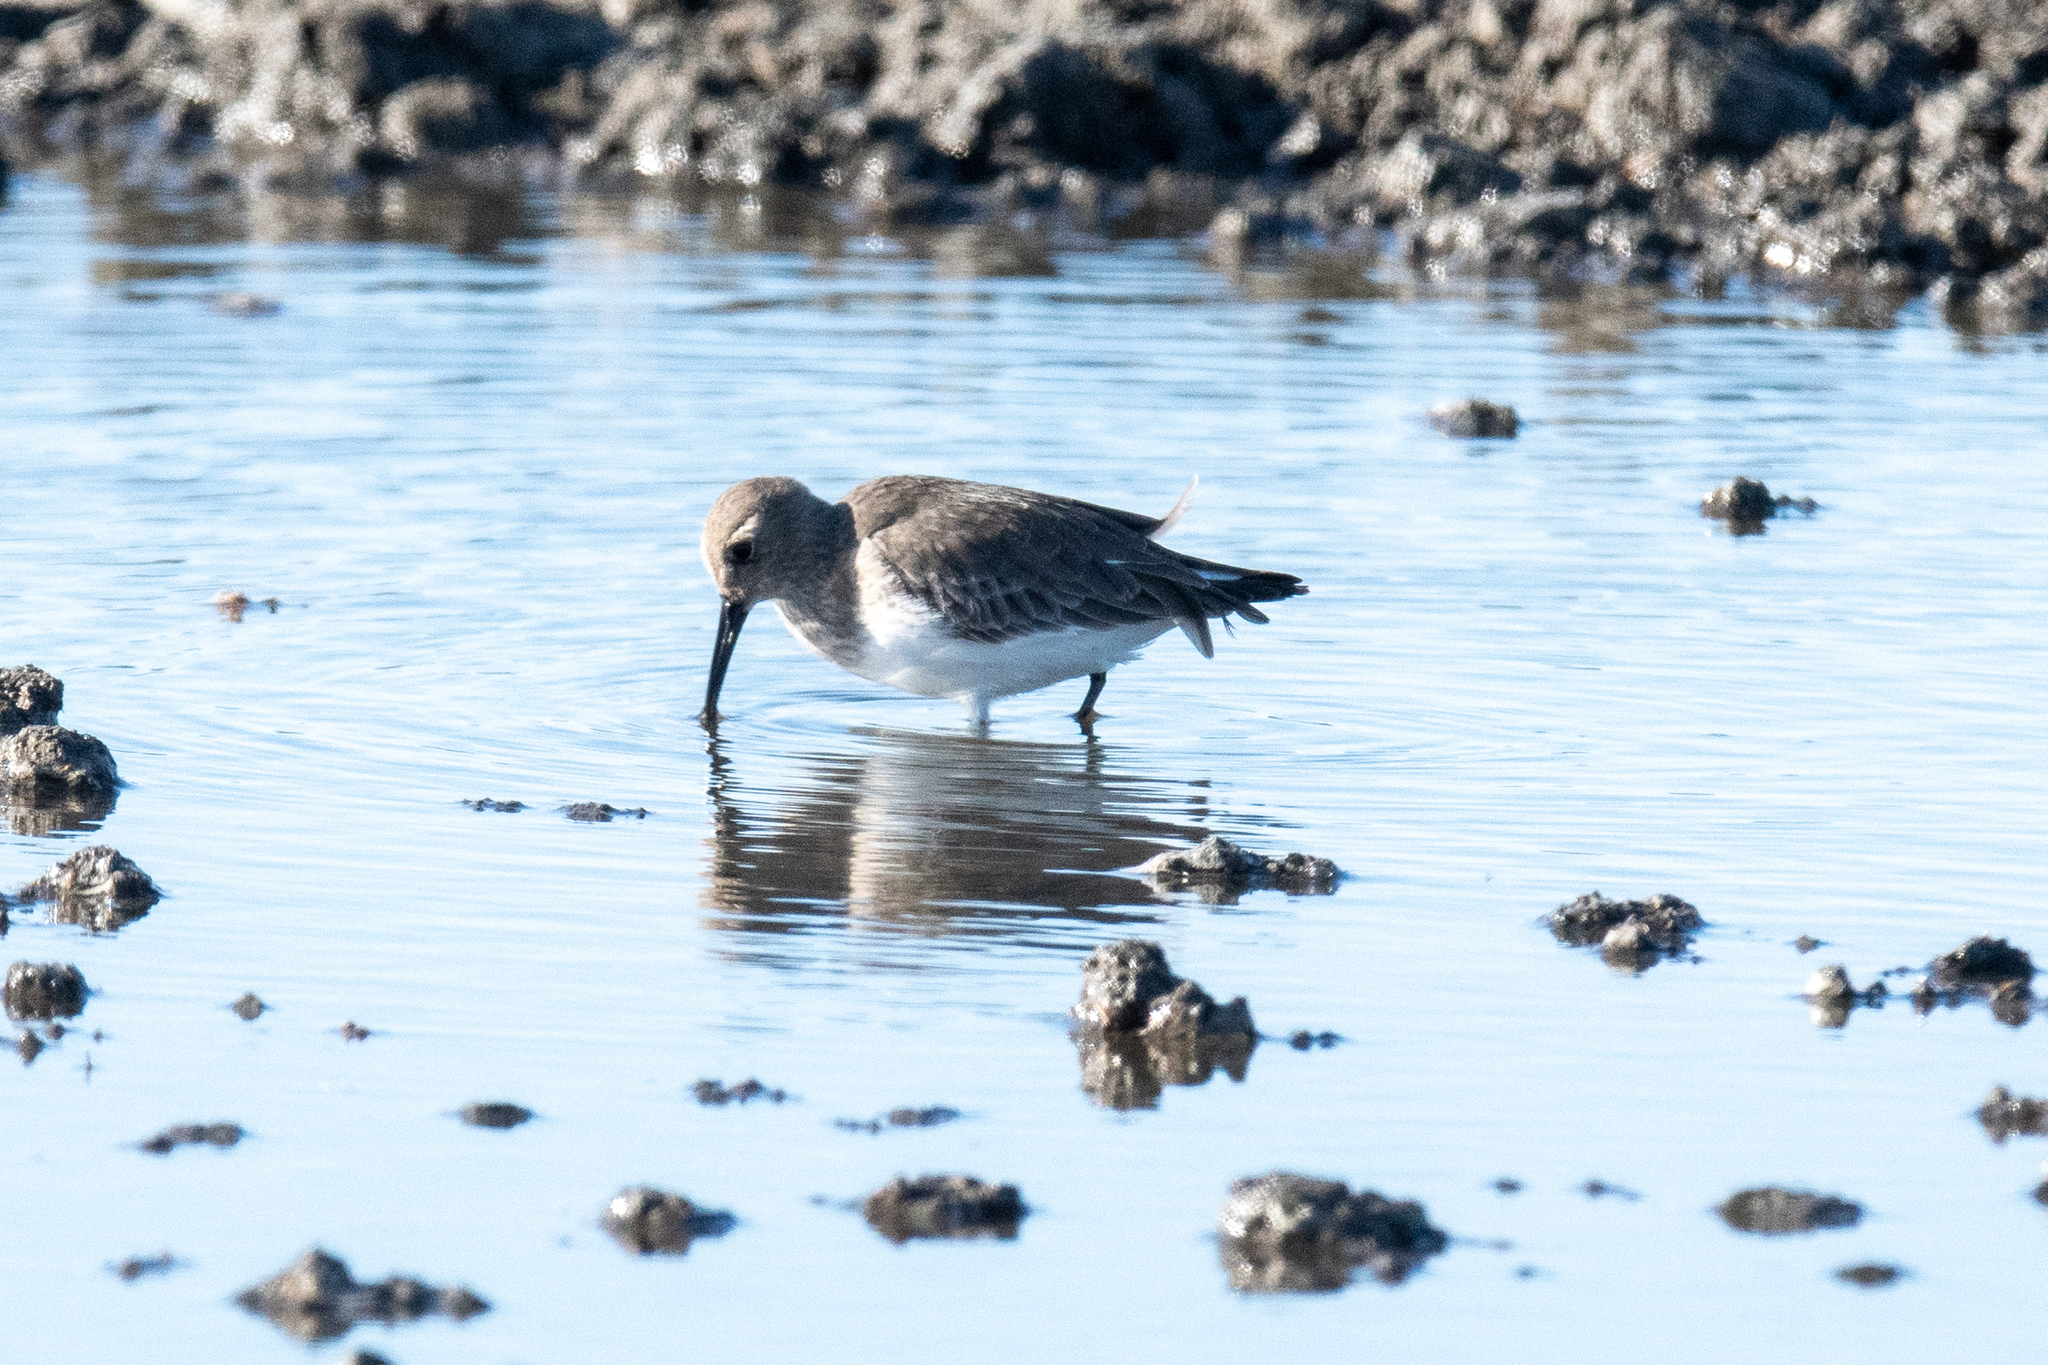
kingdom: Animalia
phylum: Chordata
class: Aves
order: Charadriiformes
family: Scolopacidae
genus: Calidris
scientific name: Calidris alpina
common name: Dunlin
